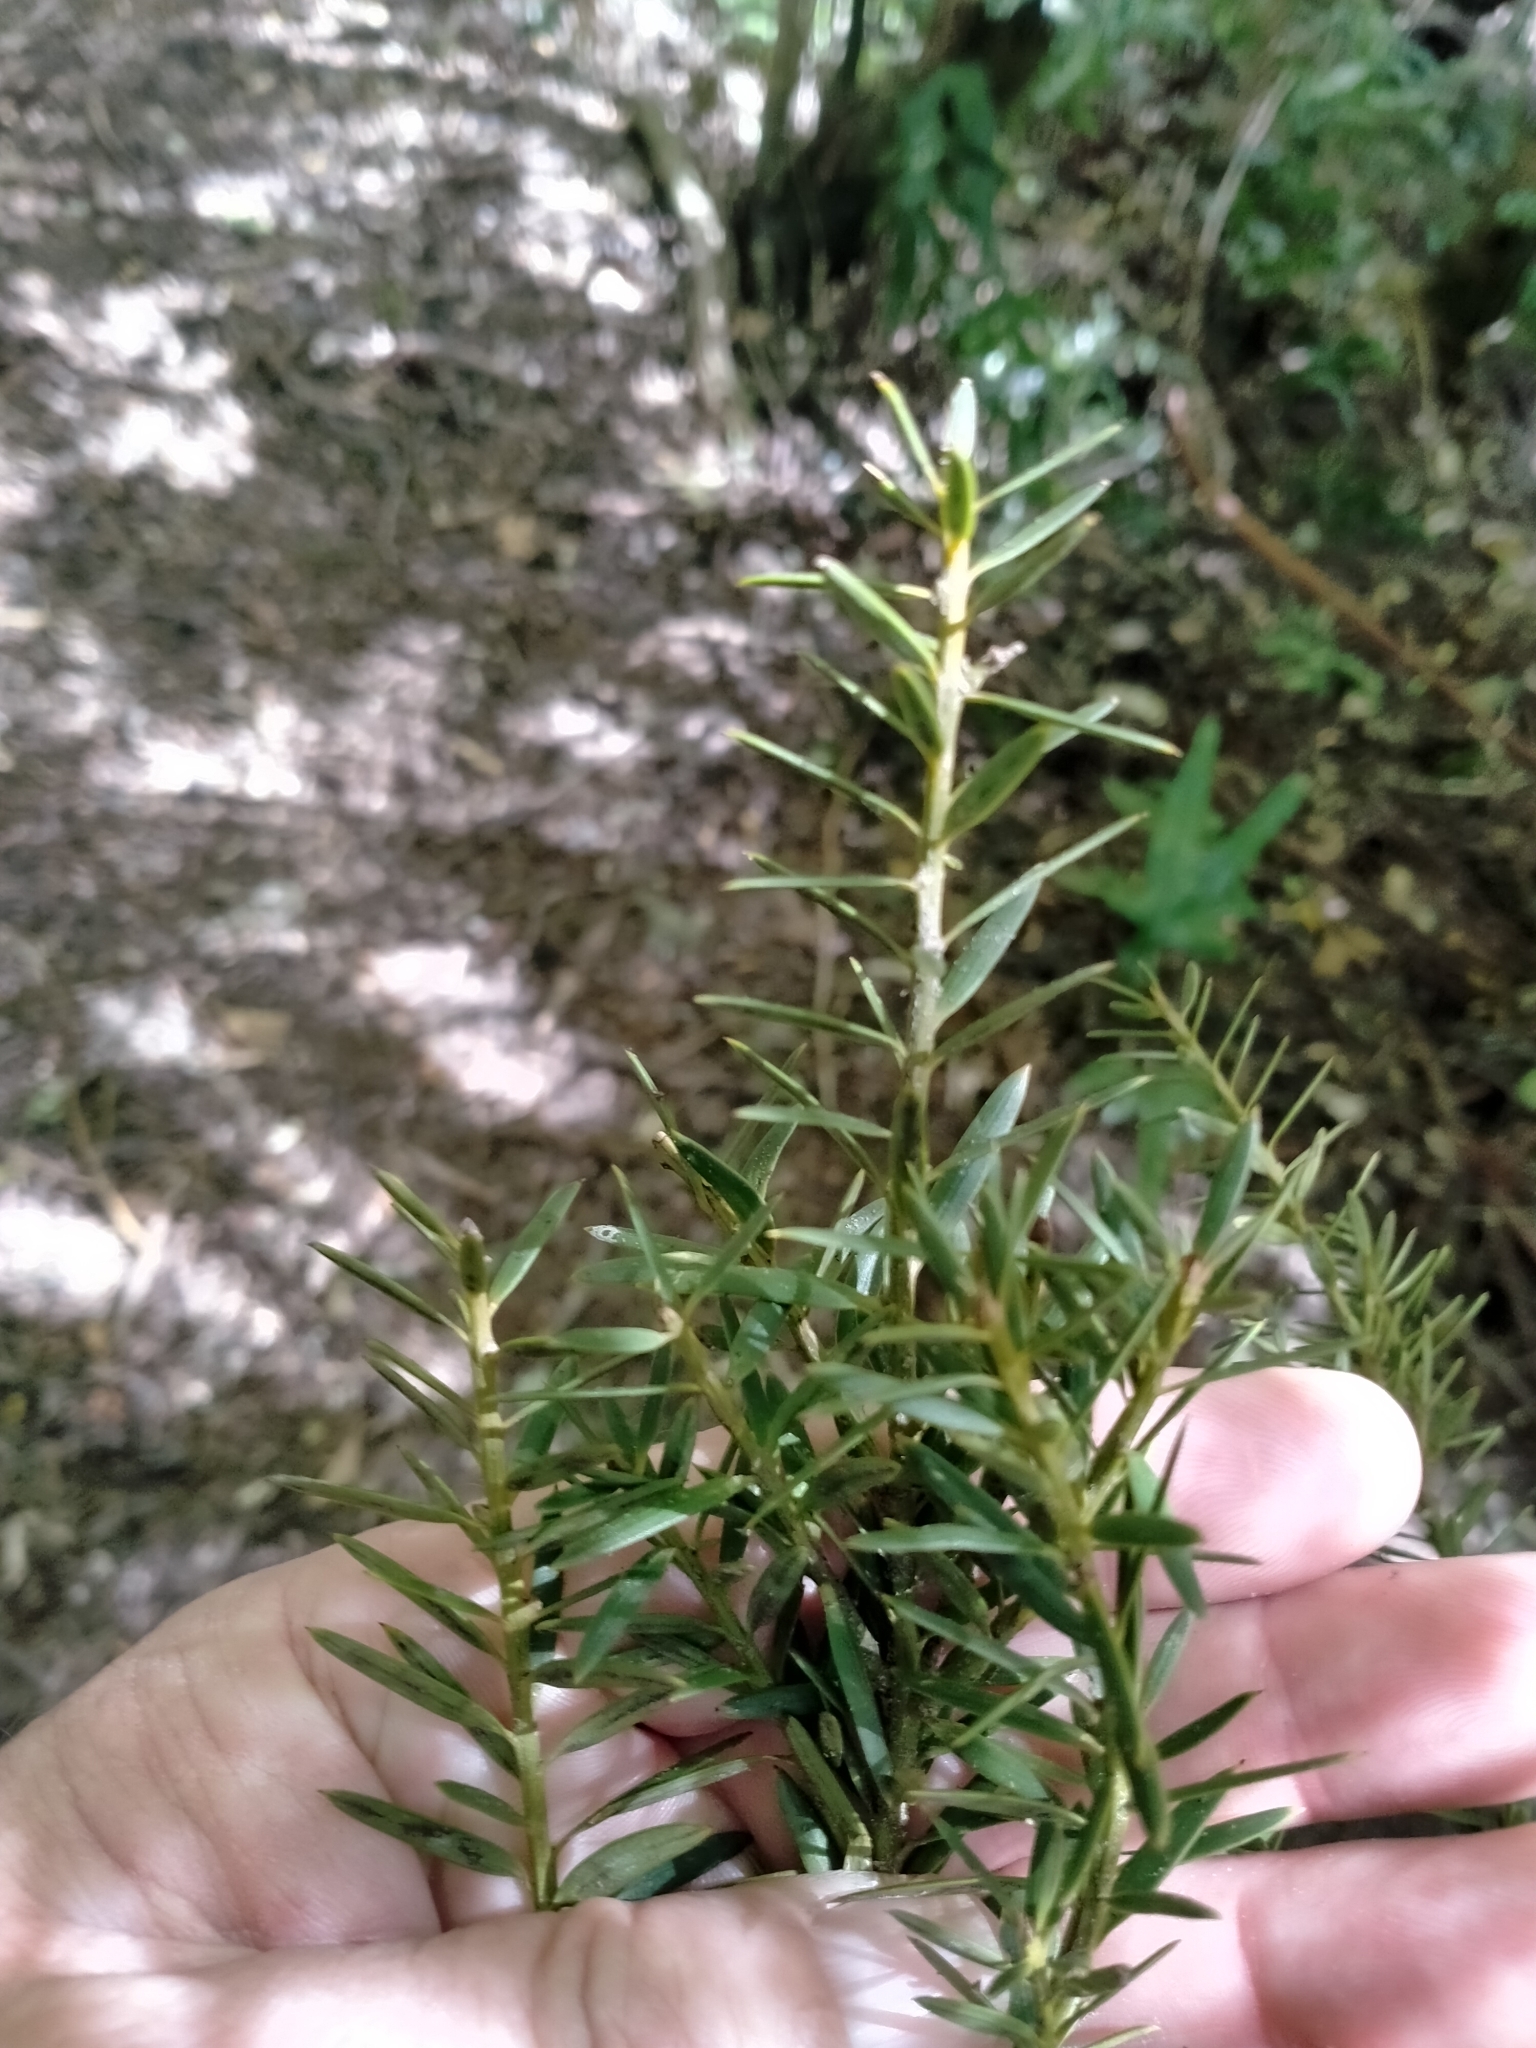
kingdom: Plantae
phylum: Tracheophyta
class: Pinopsida
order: Pinales
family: Podocarpaceae
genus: Podocarpus
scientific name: Podocarpus totara
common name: Totara
